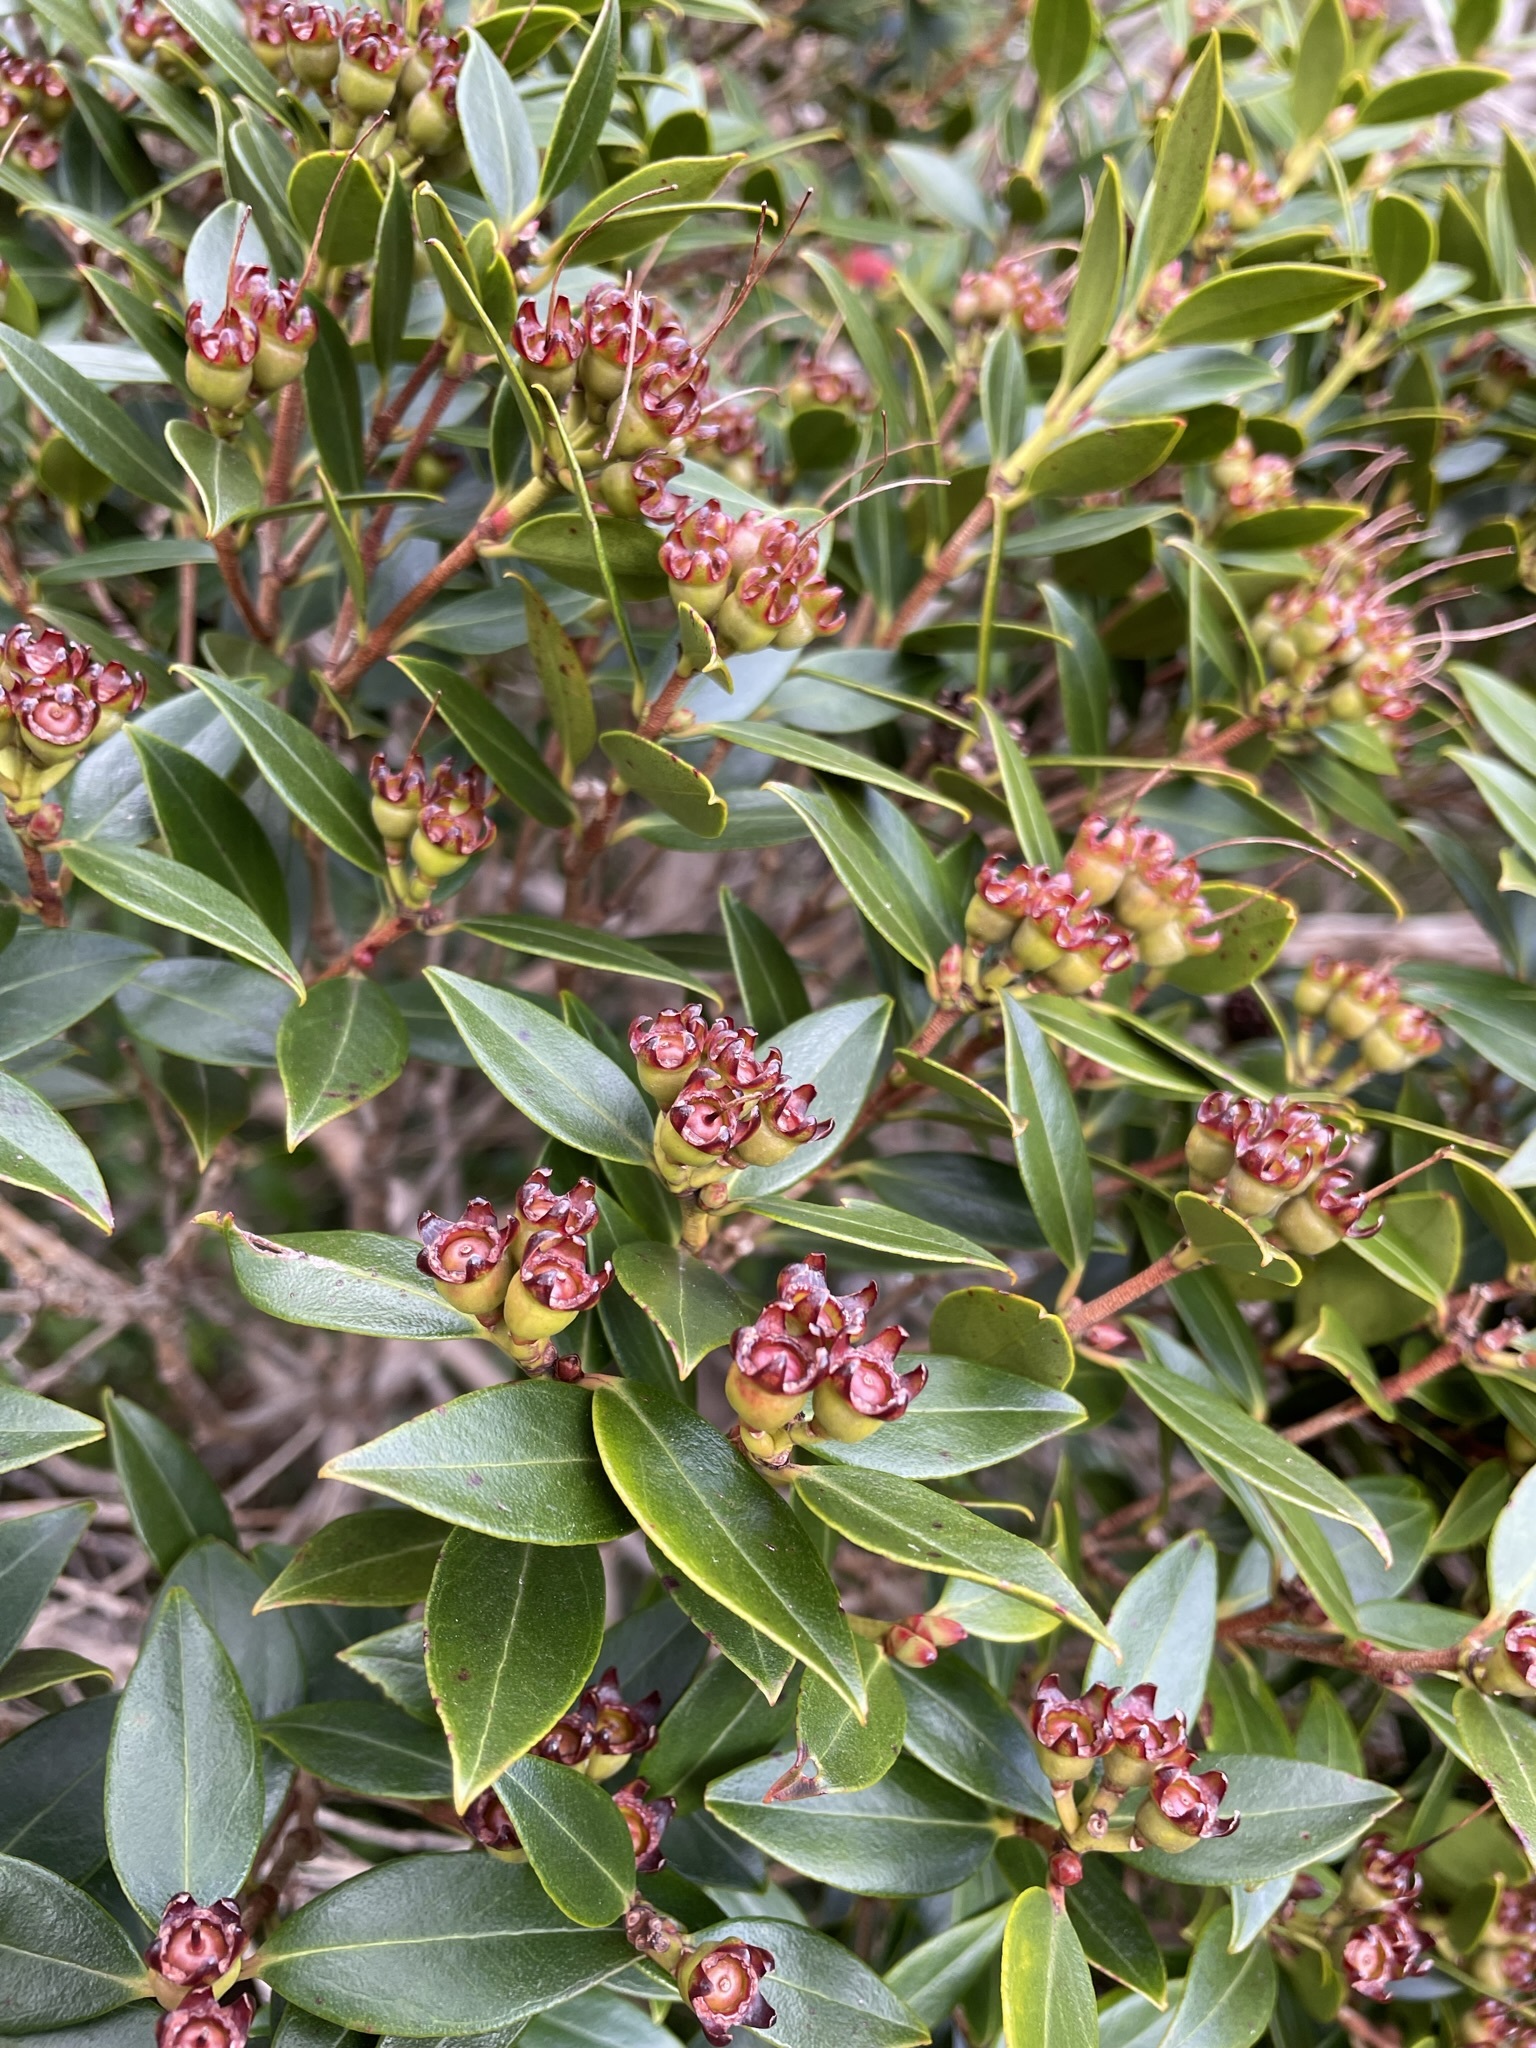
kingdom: Plantae
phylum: Tracheophyta
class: Magnoliopsida
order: Myrtales
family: Myrtaceae
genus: Metrosideros
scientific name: Metrosideros umbellata
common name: Southern rata
